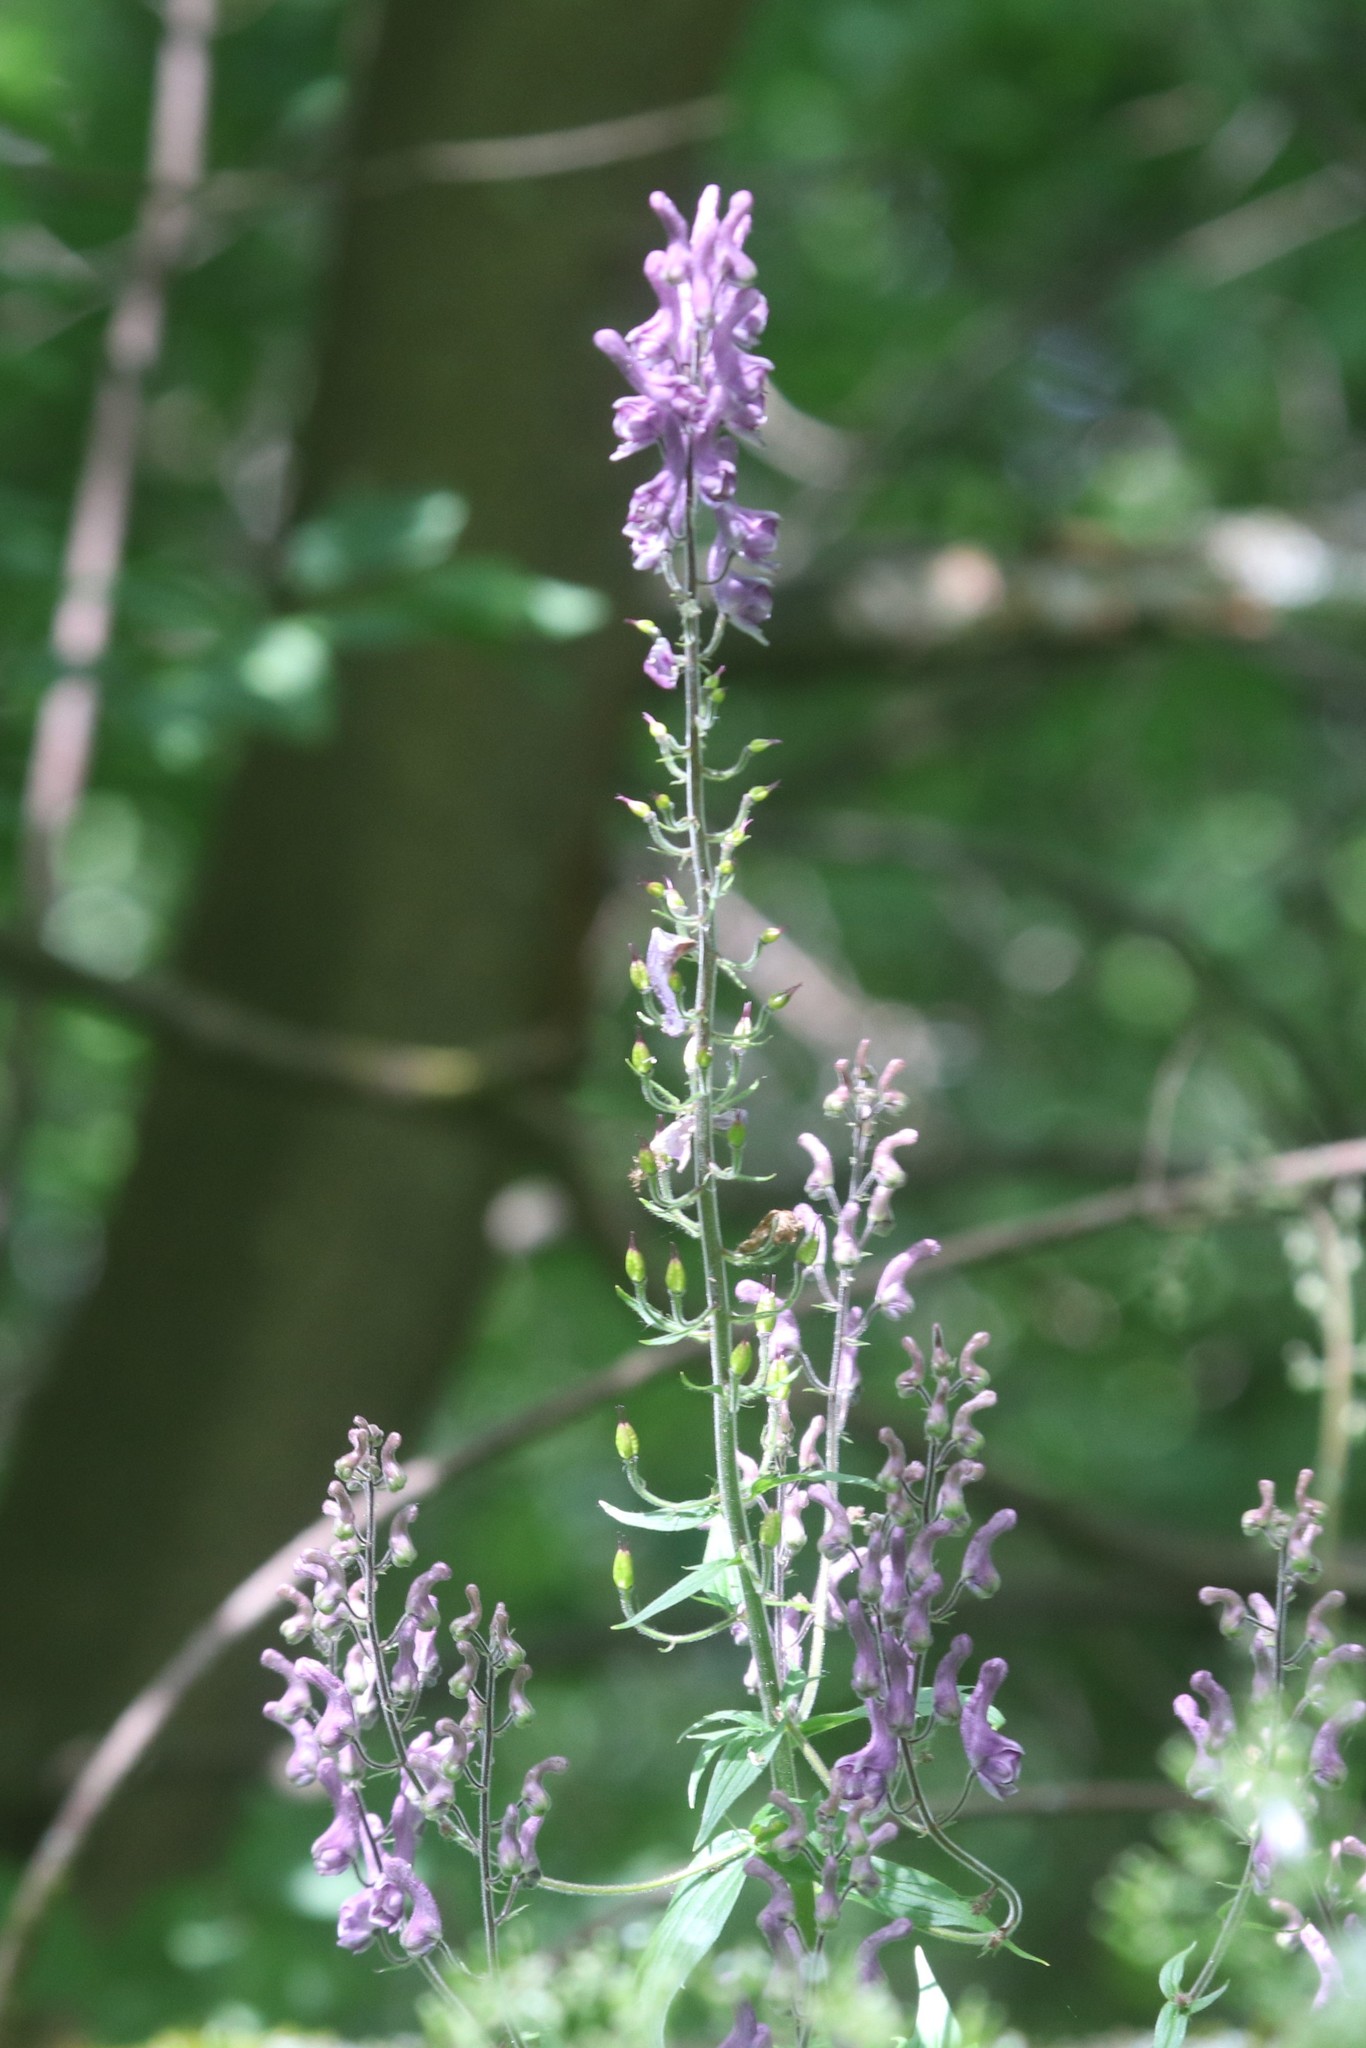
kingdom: Plantae
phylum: Tracheophyta
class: Magnoliopsida
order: Ranunculales
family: Ranunculaceae
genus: Aconitum
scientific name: Aconitum septentrionale
